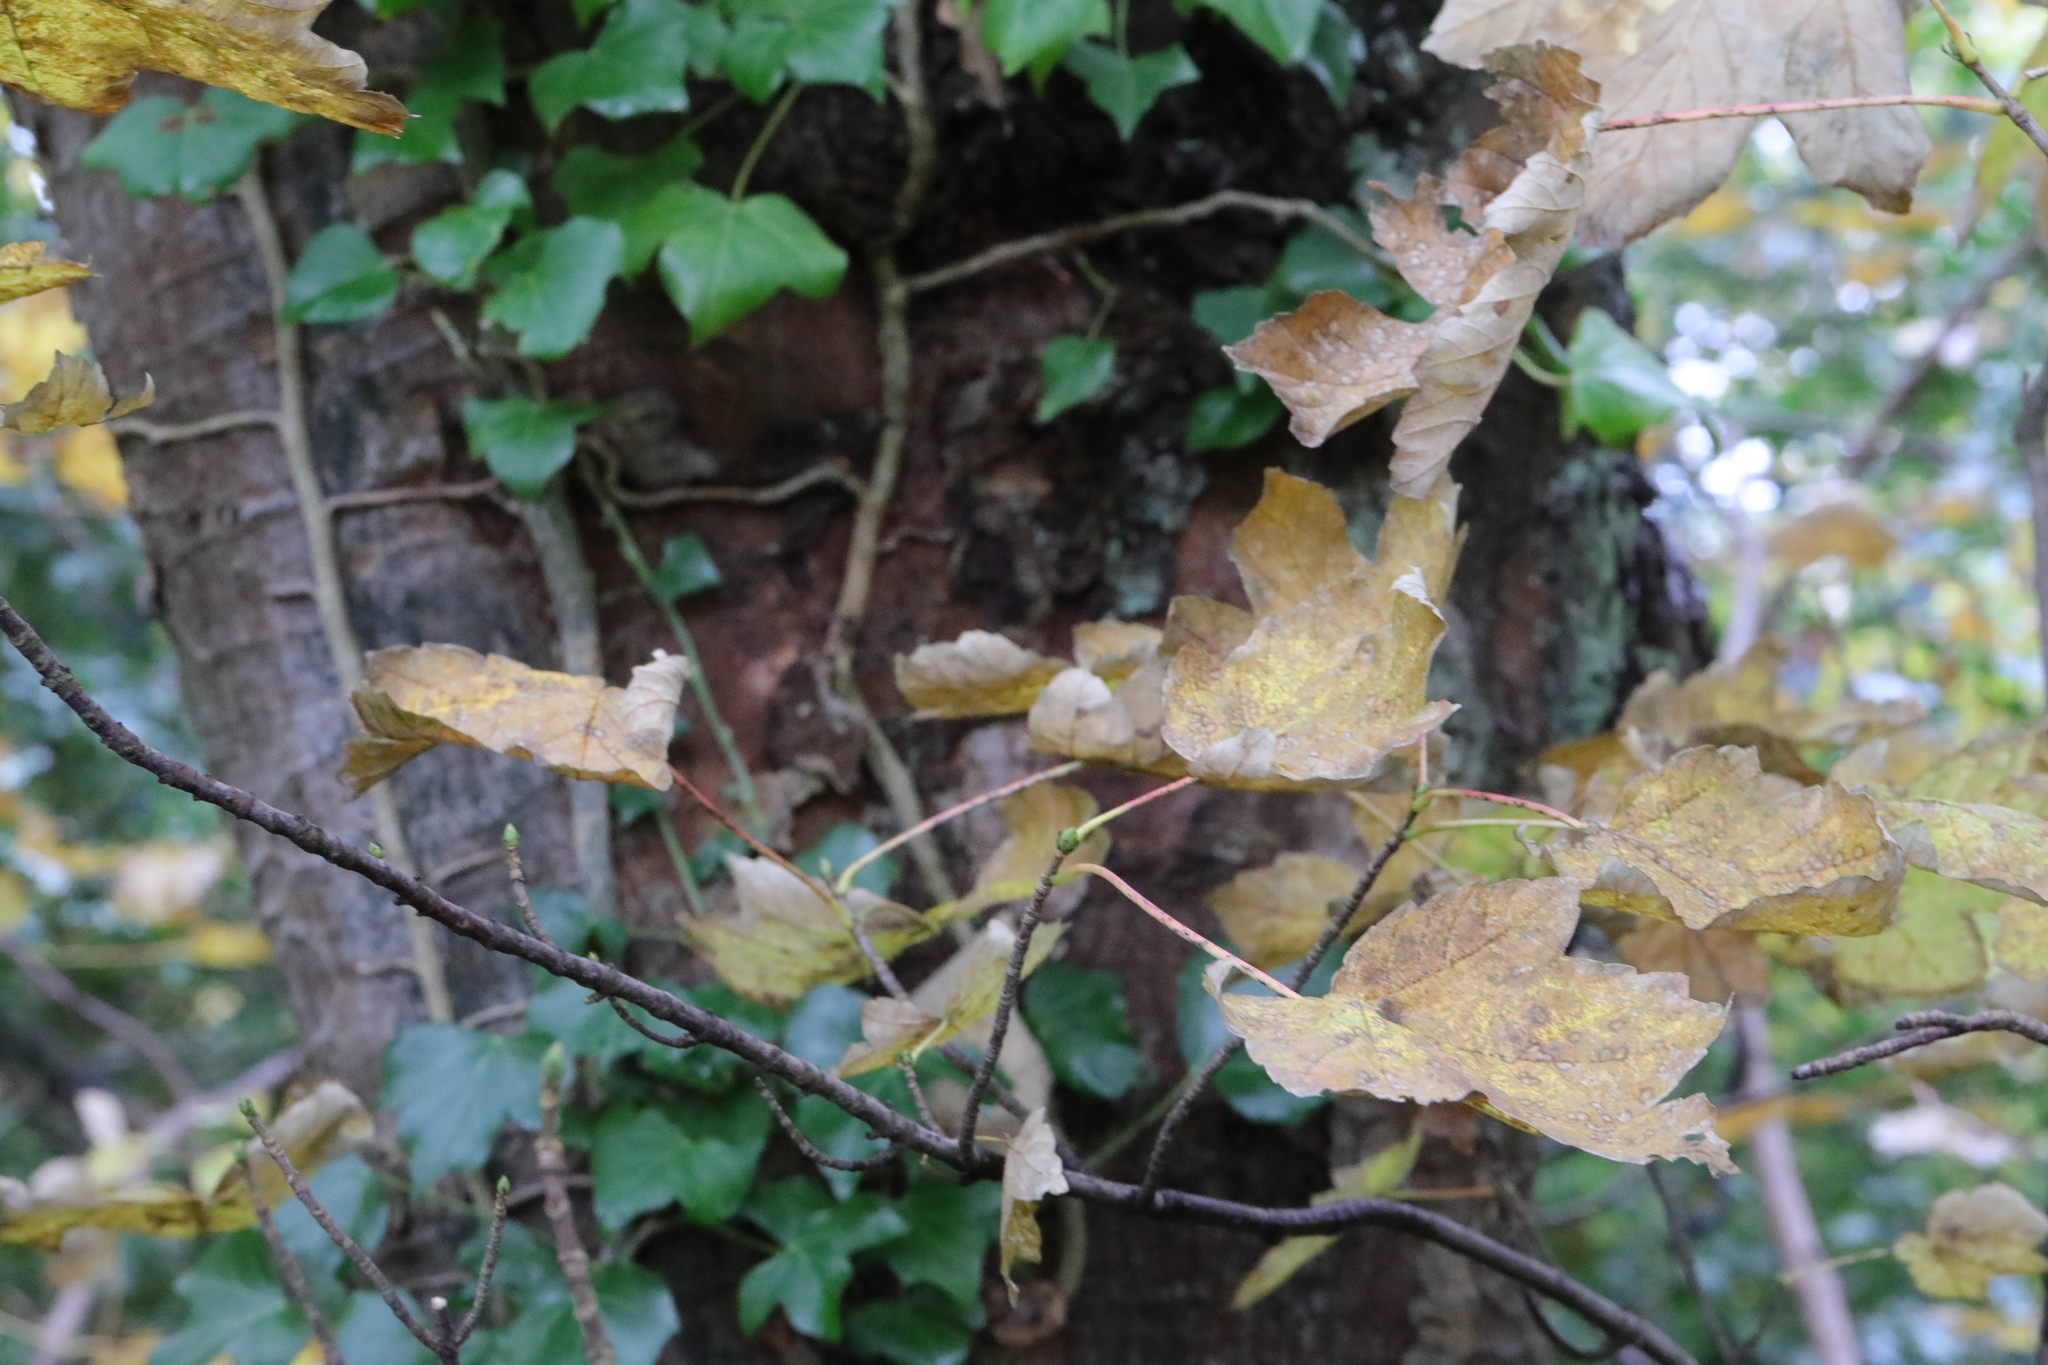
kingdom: Plantae
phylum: Tracheophyta
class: Magnoliopsida
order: Sapindales
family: Sapindaceae
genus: Acer
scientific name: Acer pseudoplatanus
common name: Sycamore
